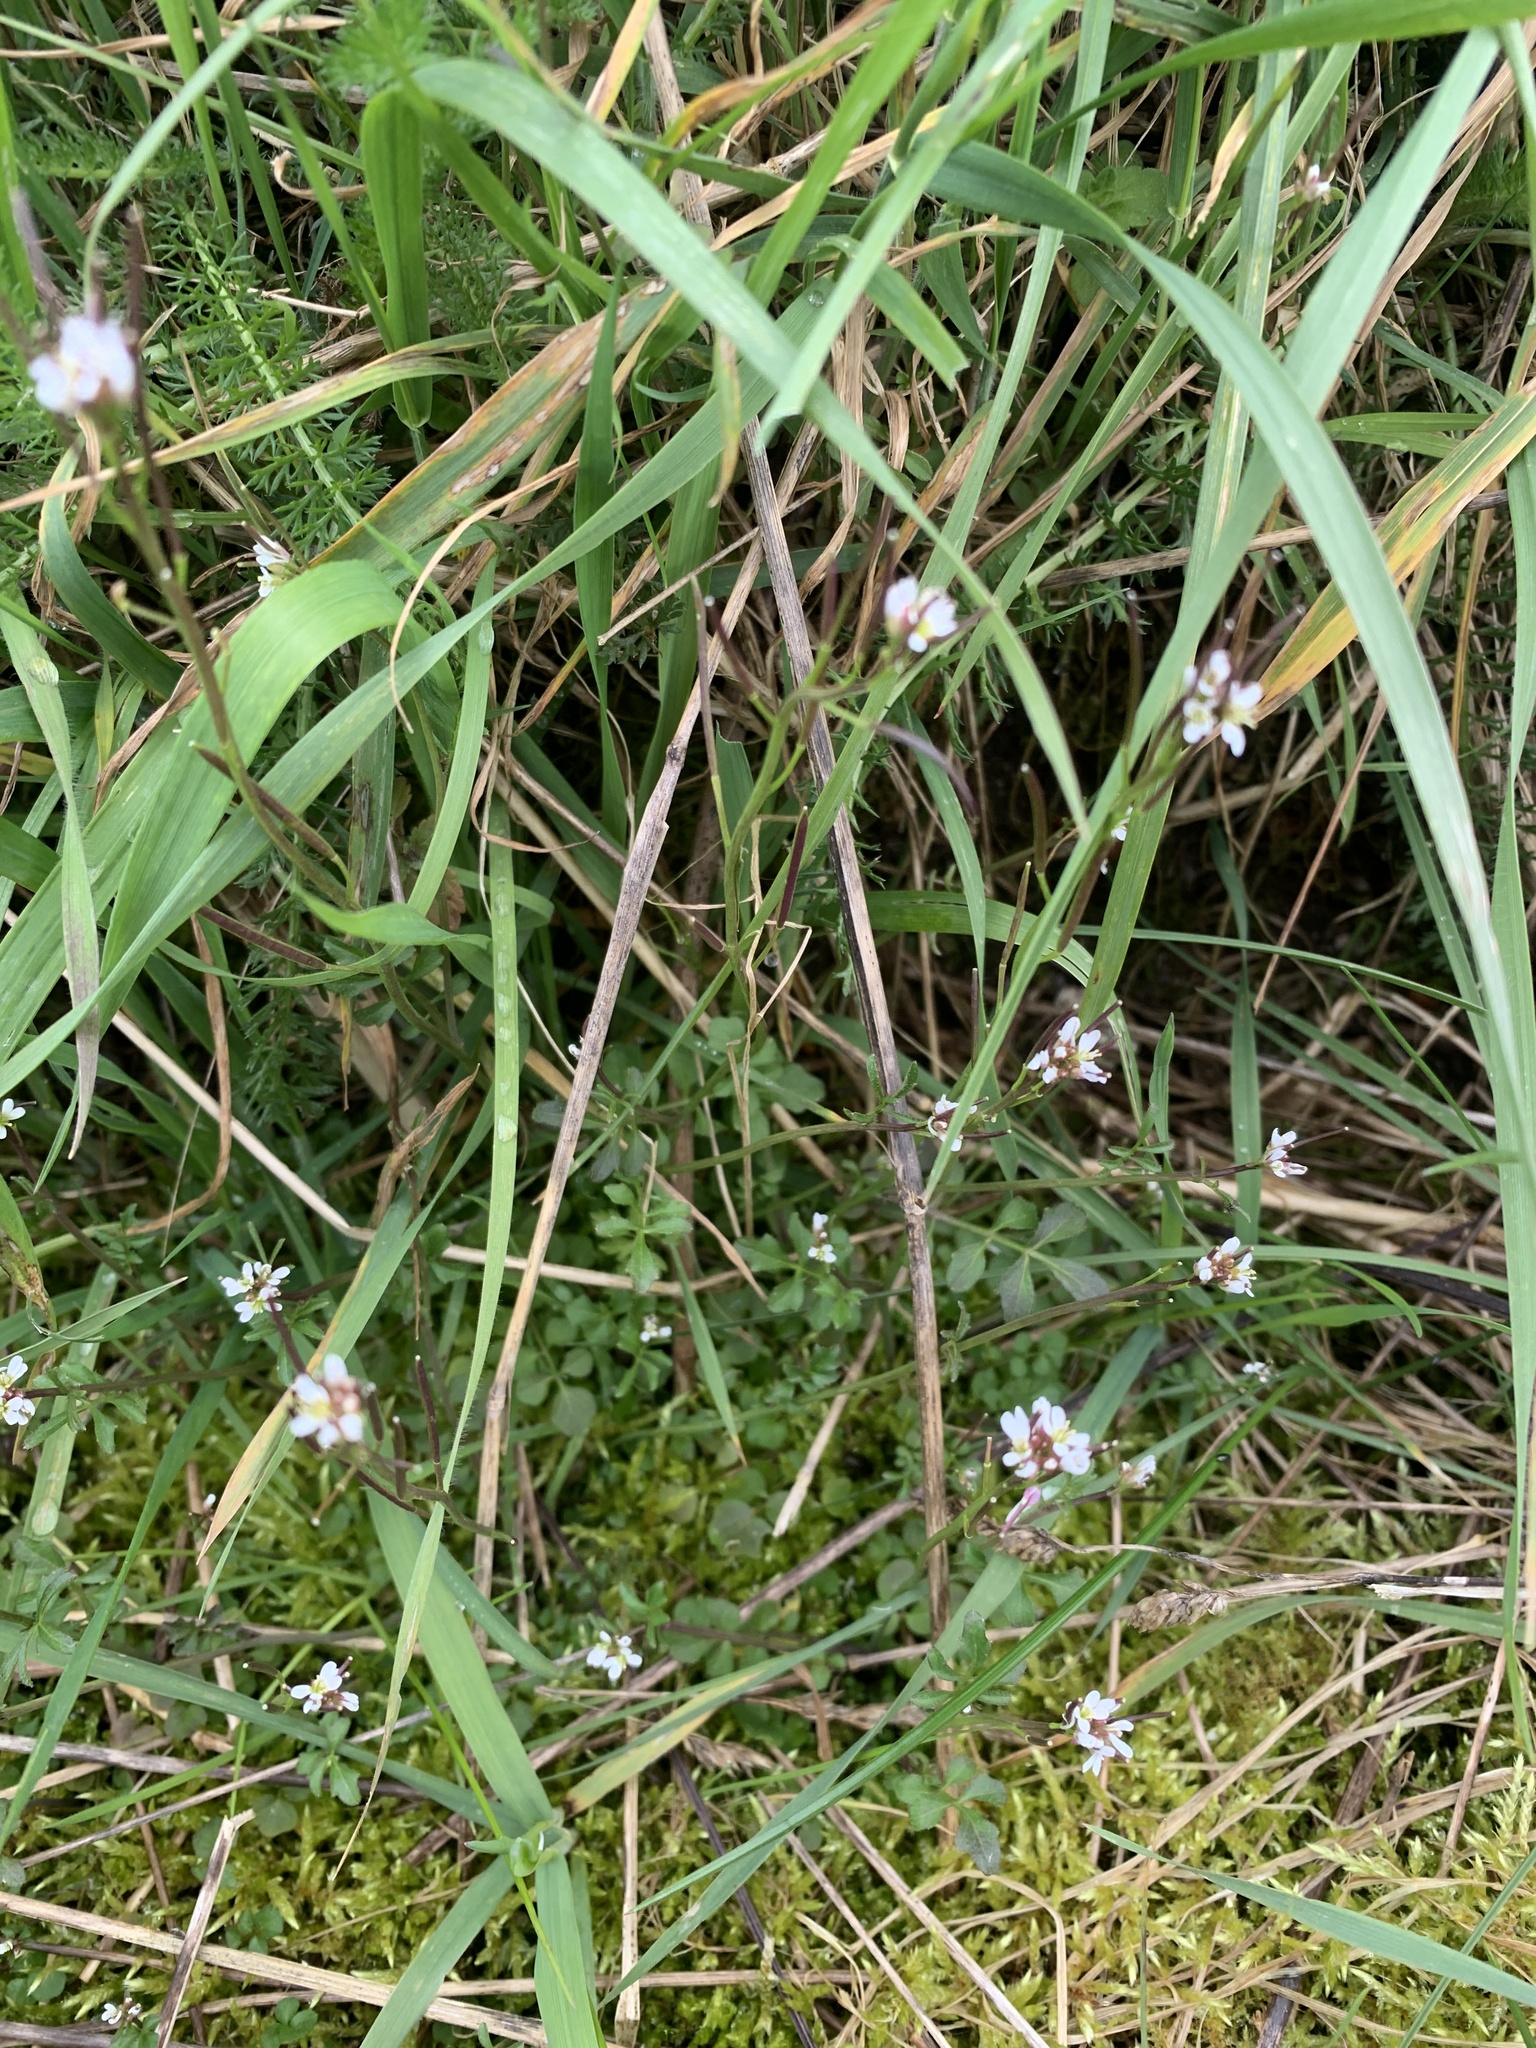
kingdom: Plantae
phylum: Tracheophyta
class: Magnoliopsida
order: Brassicales
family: Brassicaceae
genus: Cardamine
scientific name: Cardamine flexuosa
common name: Woodland bittercress
